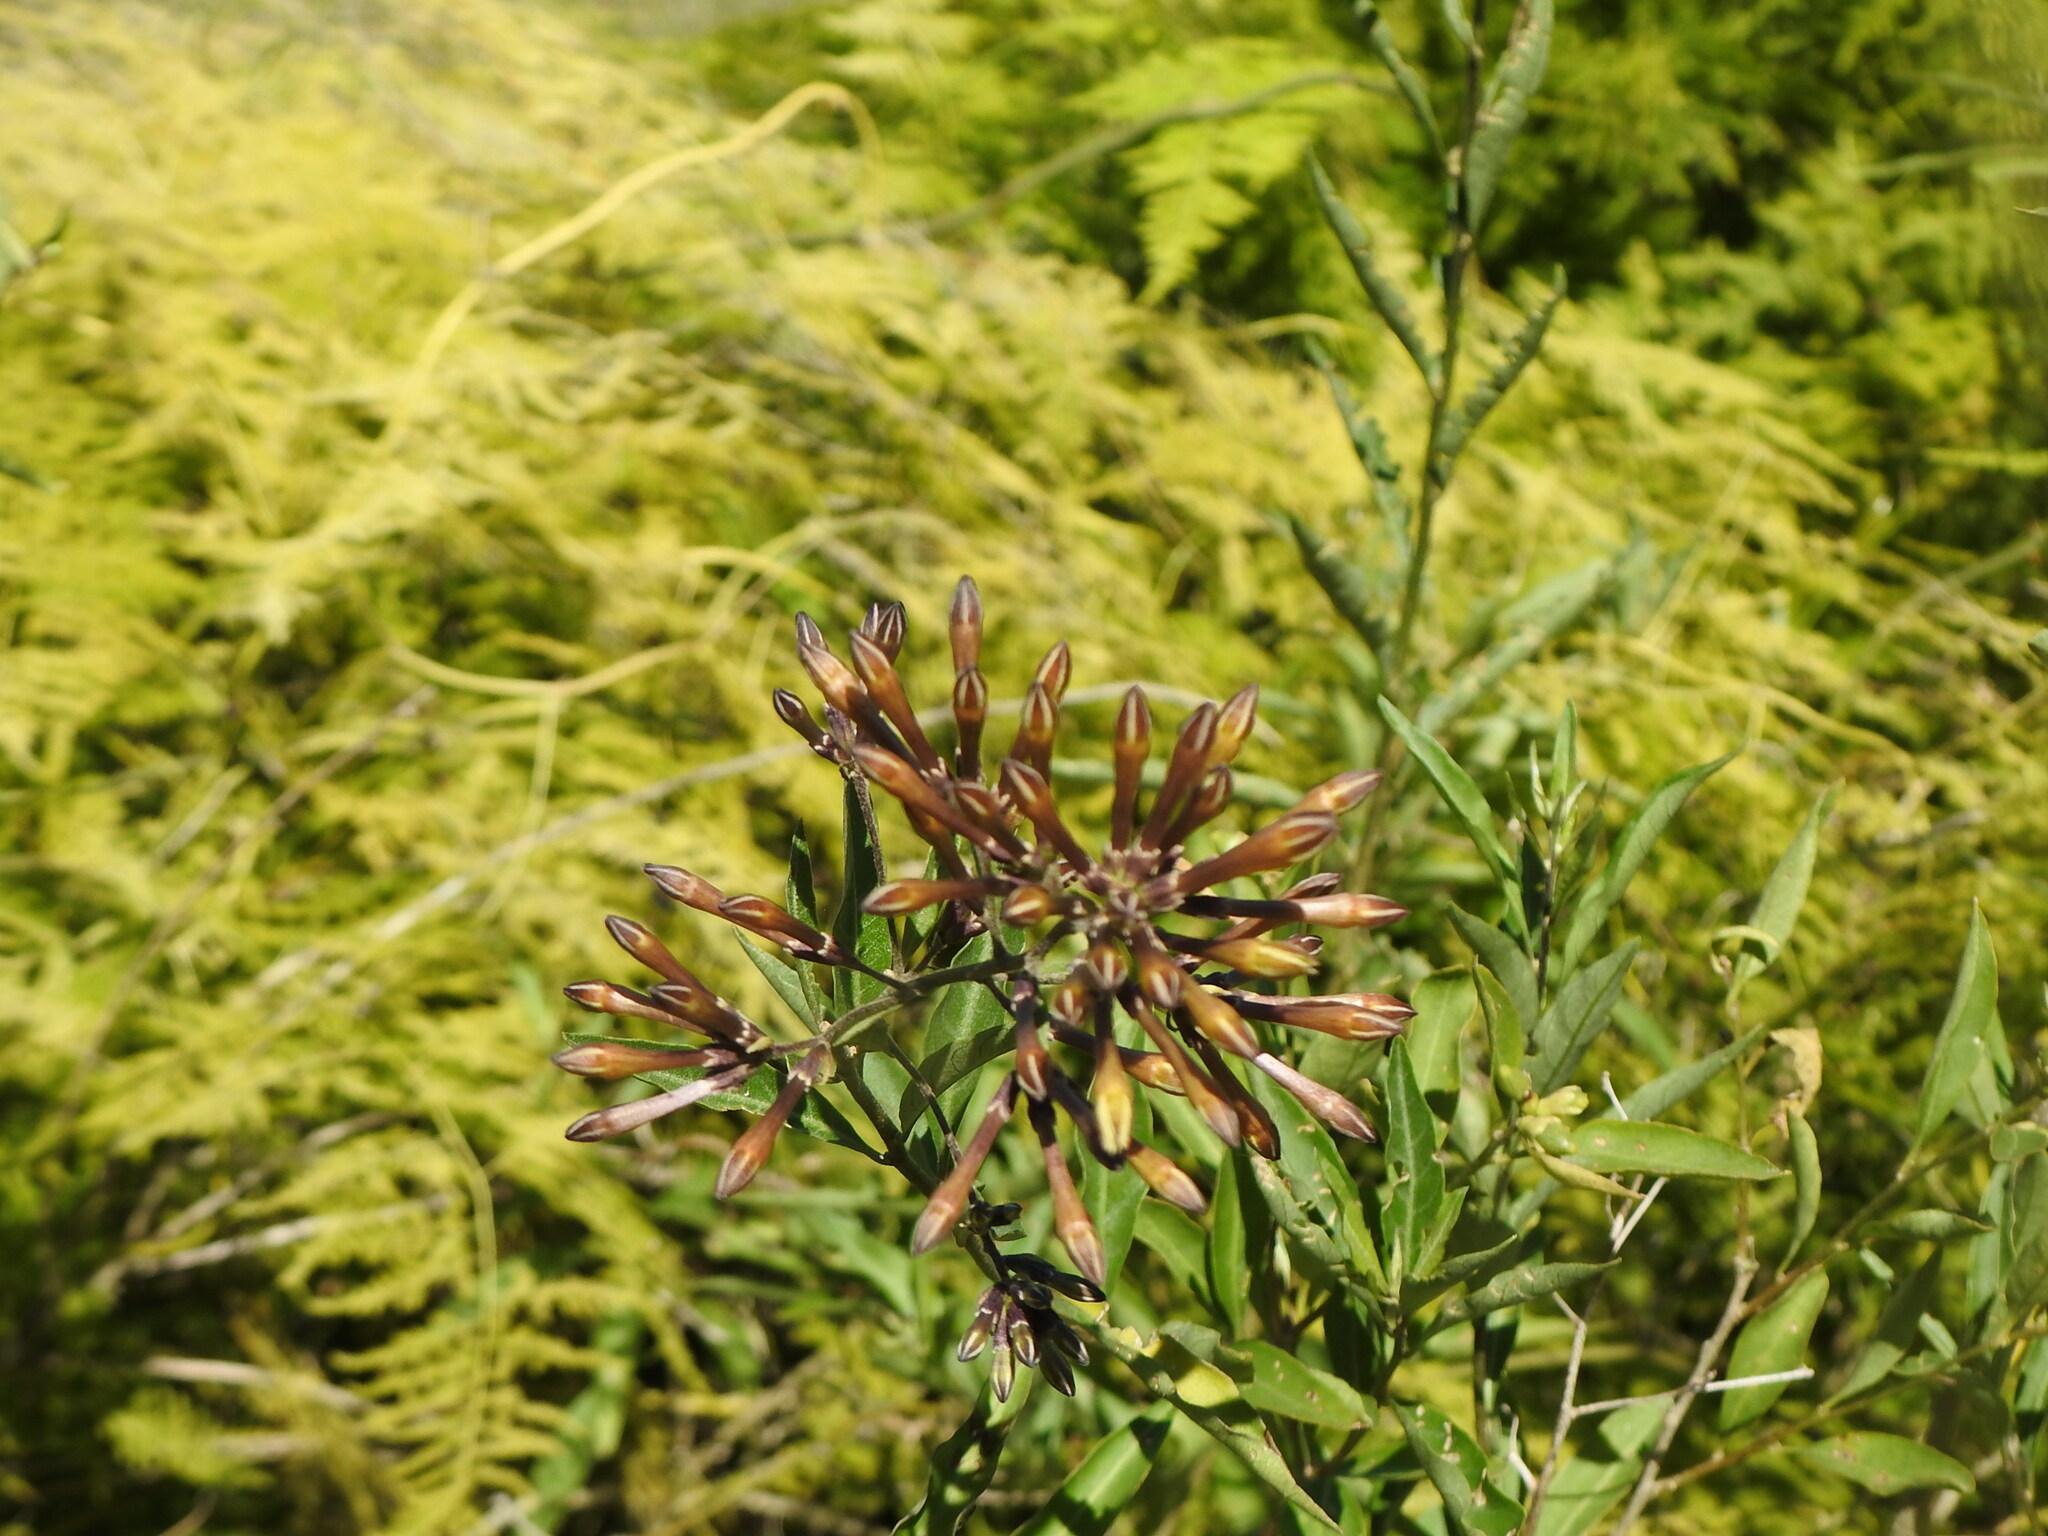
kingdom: Plantae
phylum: Tracheophyta
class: Magnoliopsida
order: Solanales
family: Solanaceae
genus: Cestrum
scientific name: Cestrum parqui
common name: Chilean cestrum
